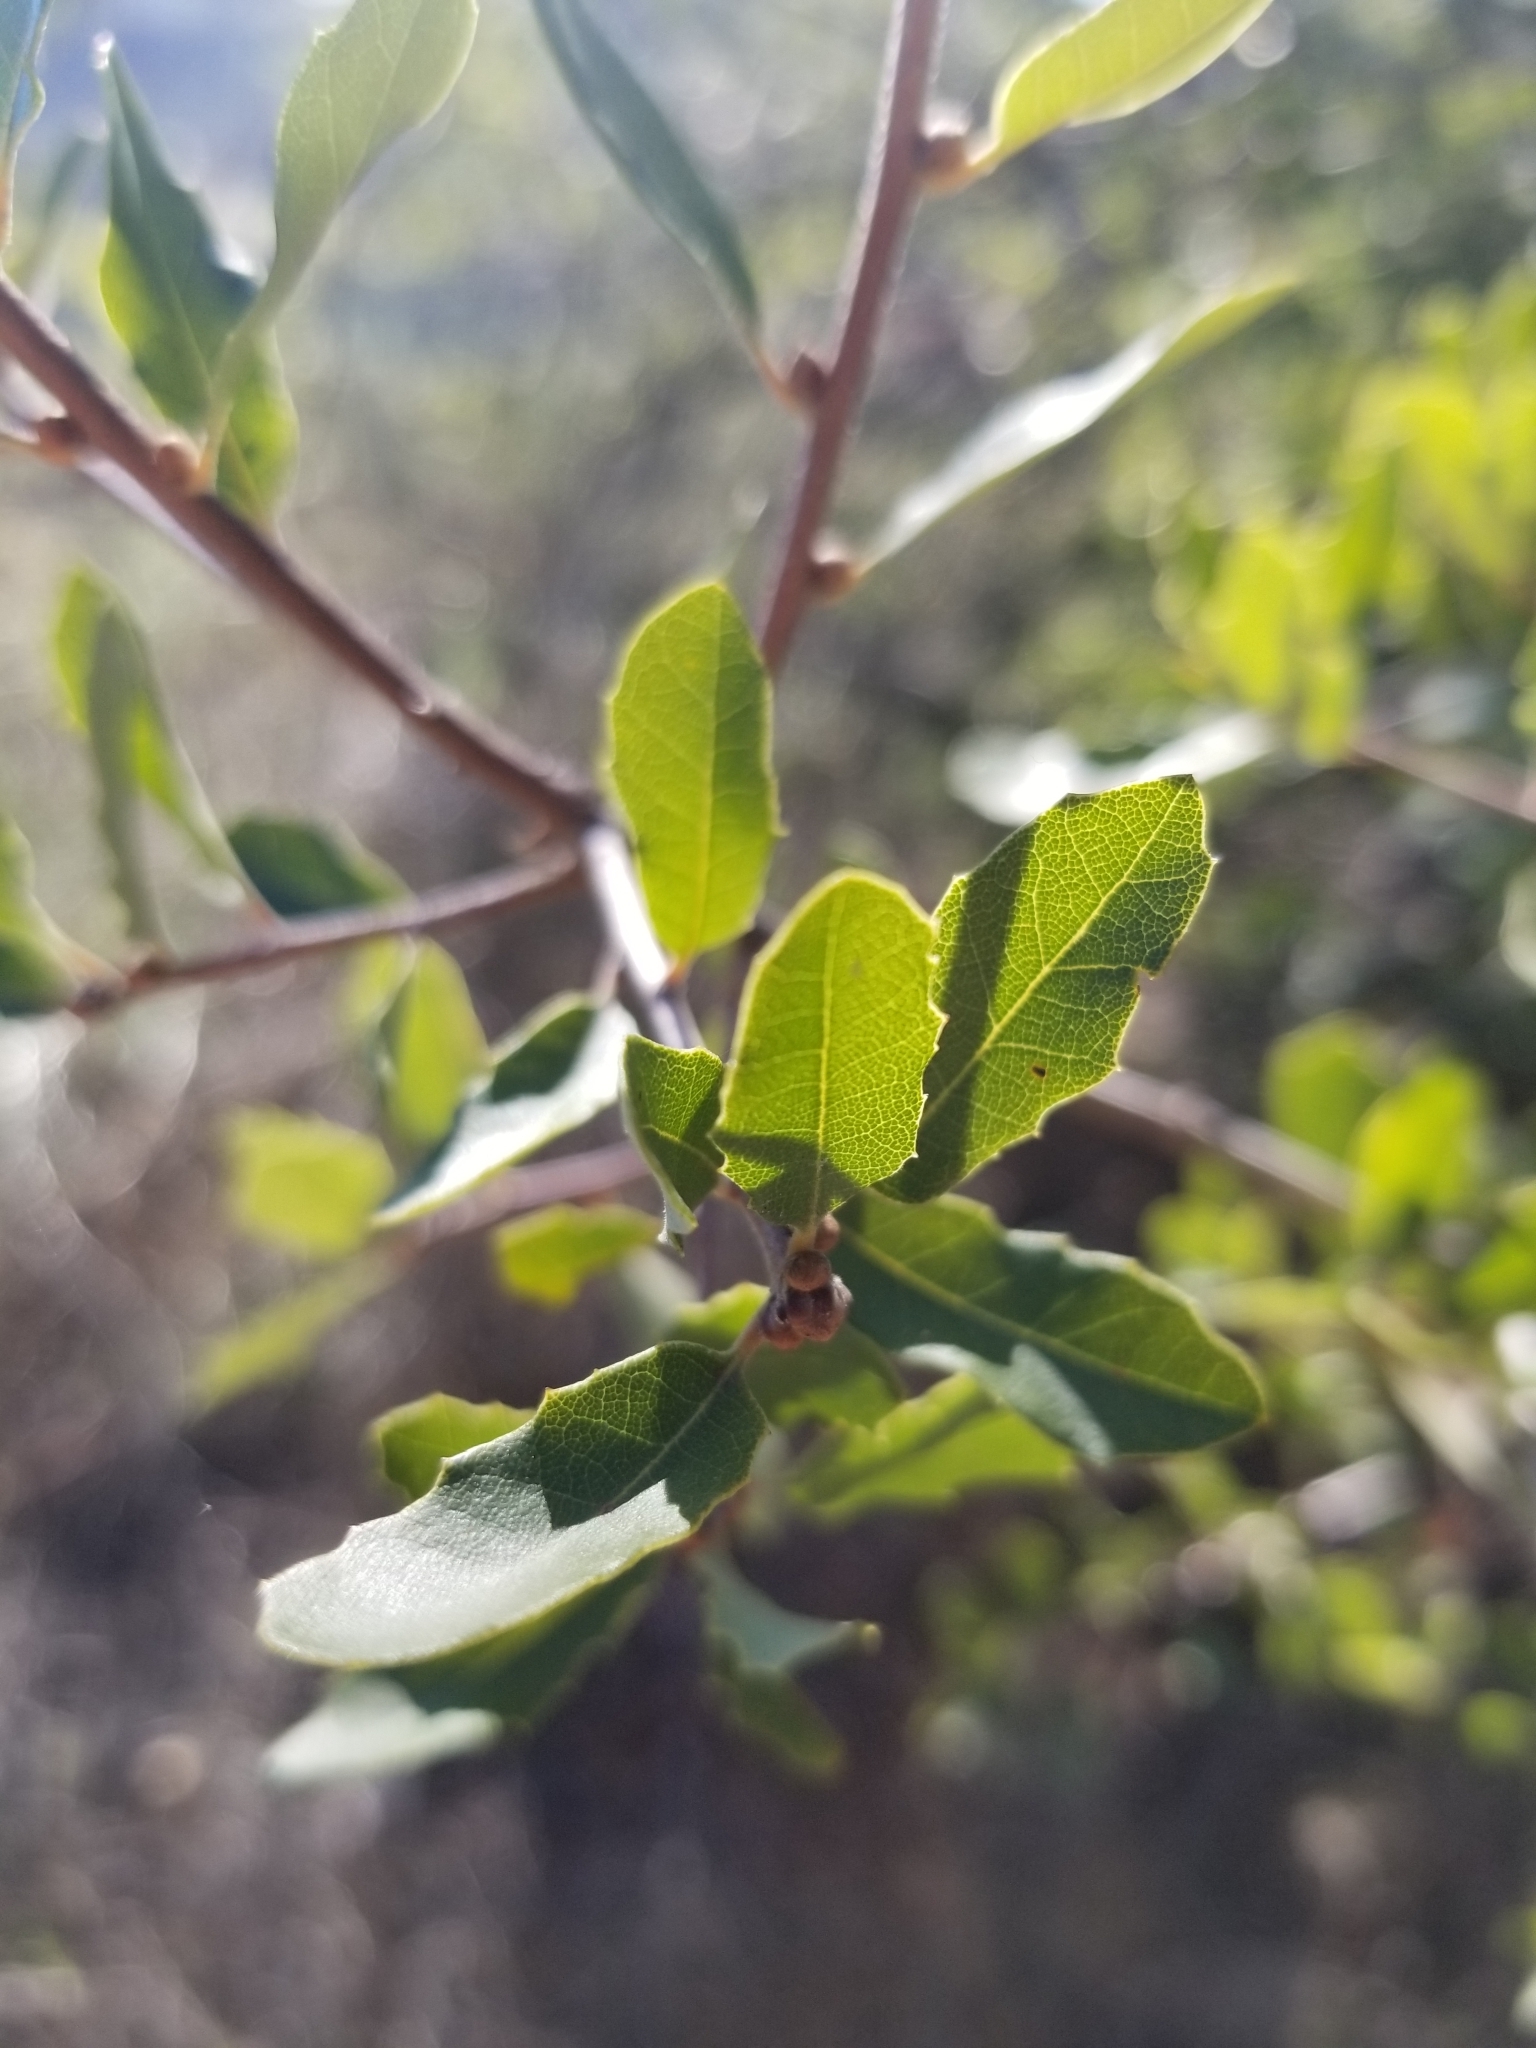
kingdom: Plantae
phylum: Tracheophyta
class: Magnoliopsida
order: Fagales
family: Fagaceae
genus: Quercus
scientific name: Quercus berberidifolia
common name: California scrub oak
